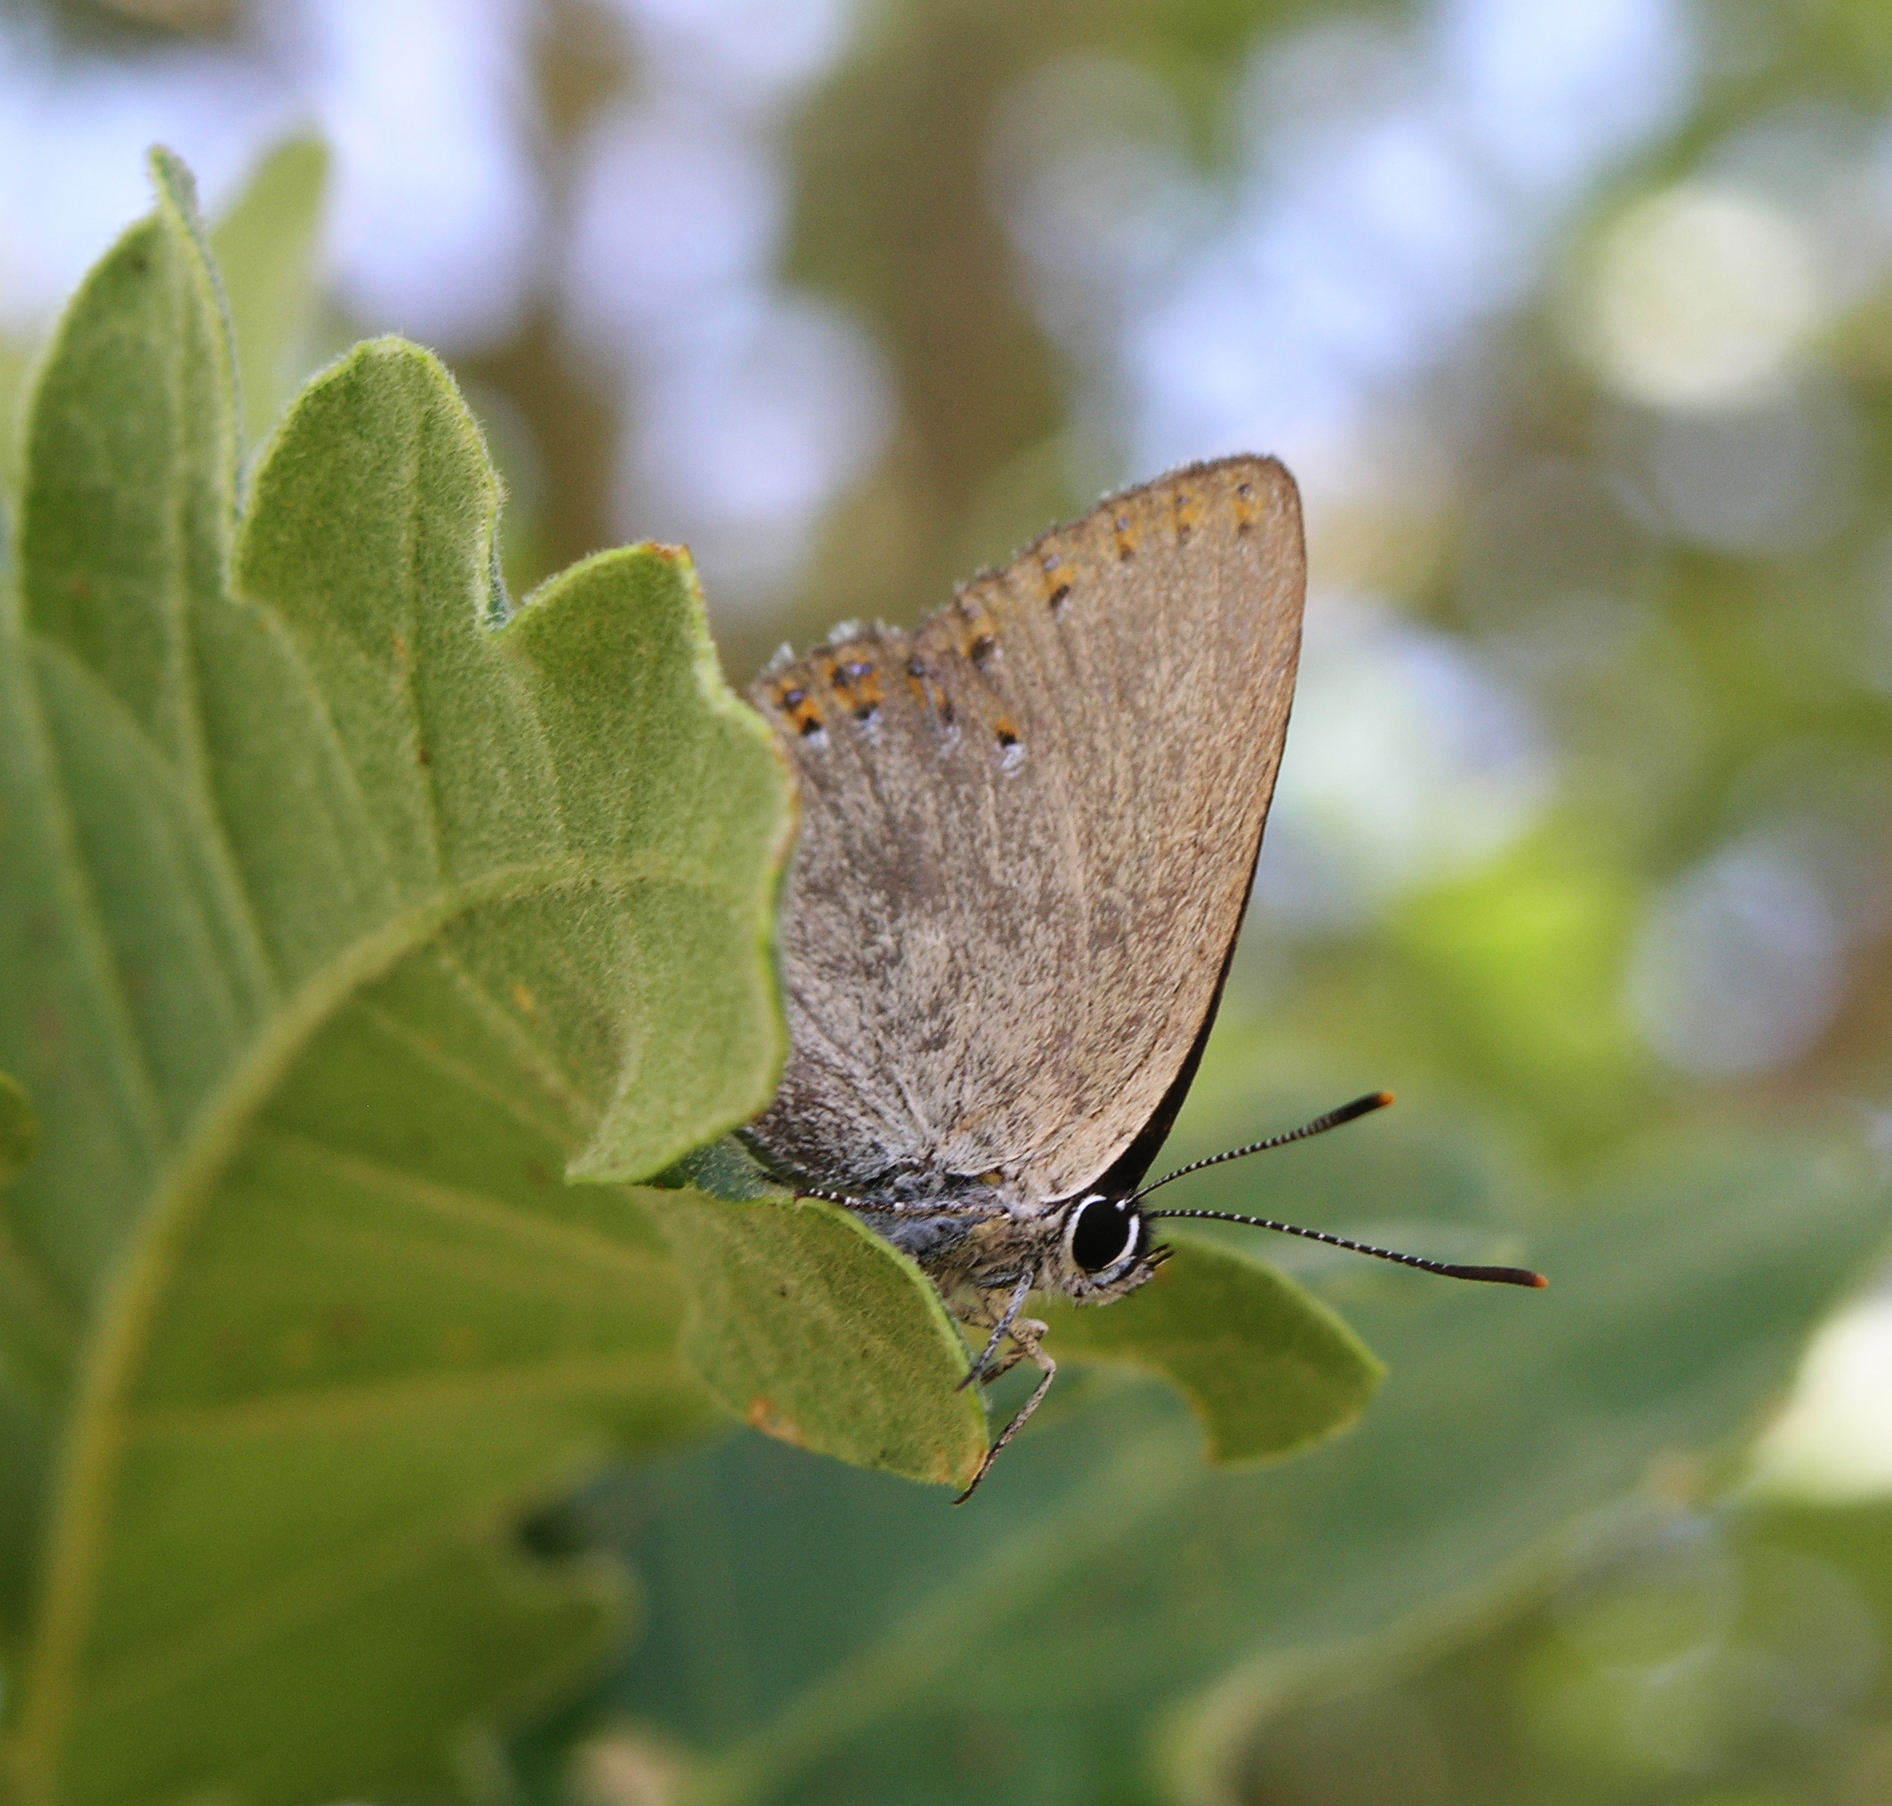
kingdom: Animalia
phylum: Arthropoda
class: Insecta
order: Lepidoptera
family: Lycaenidae
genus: Laeosopis
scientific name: Laeosopis roboris
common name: Spanish purple hairstreak
